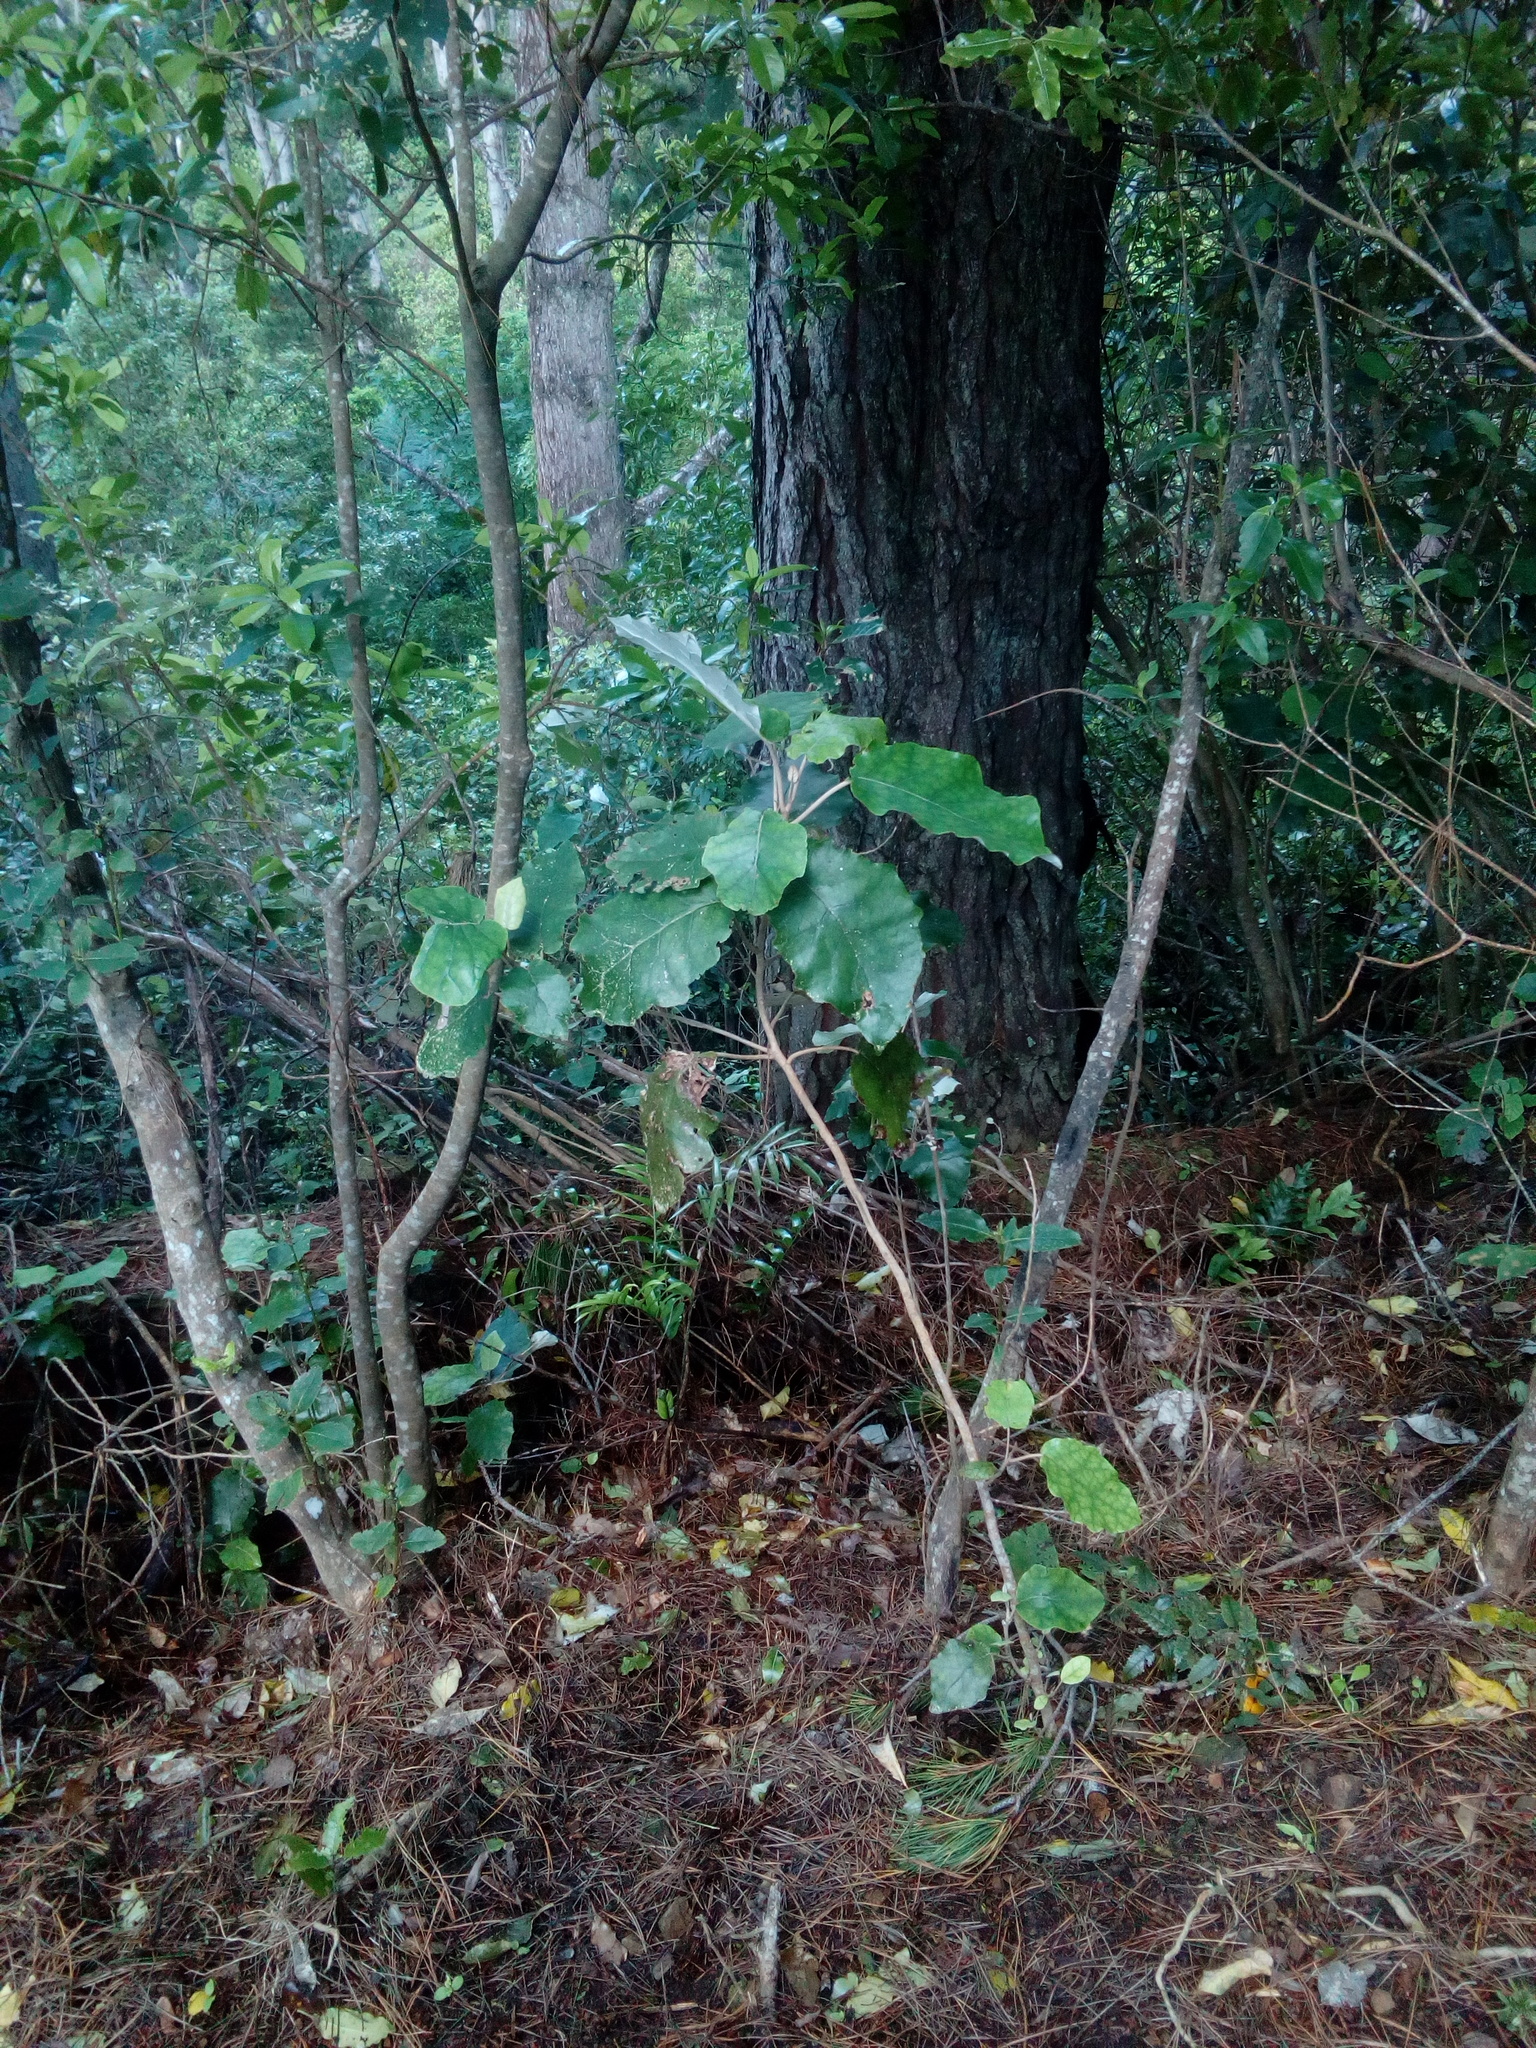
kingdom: Plantae
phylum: Tracheophyta
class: Magnoliopsida
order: Asterales
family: Asteraceae
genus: Brachyglottis
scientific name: Brachyglottis repanda
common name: Hedge ragwort
